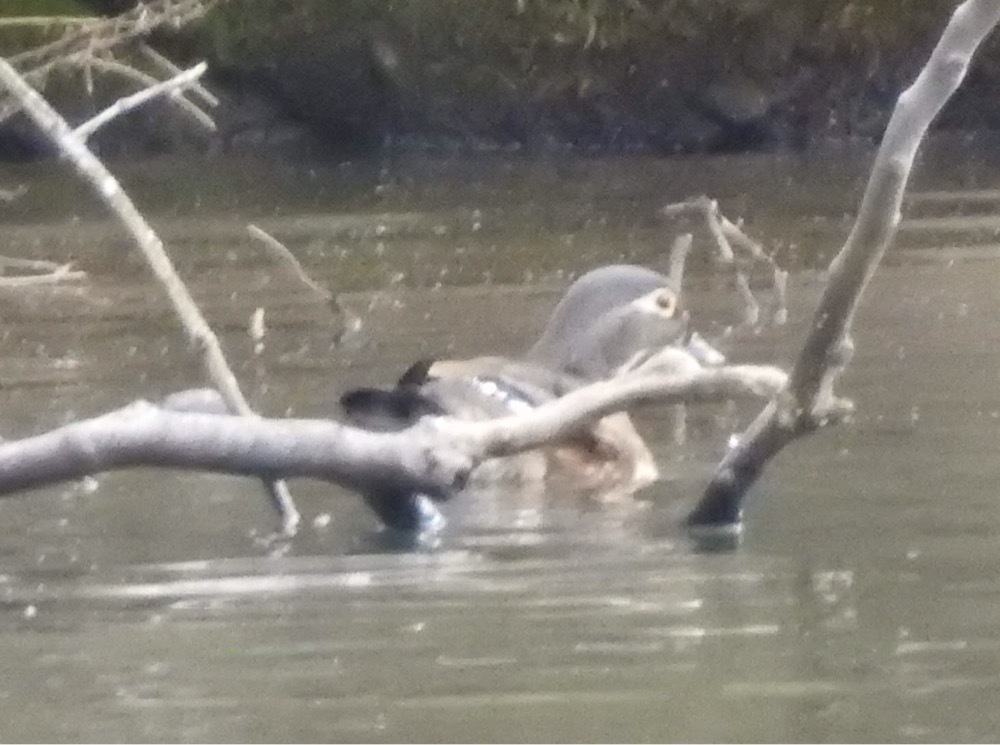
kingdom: Animalia
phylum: Chordata
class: Aves
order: Anseriformes
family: Anatidae
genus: Aix
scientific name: Aix sponsa
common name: Wood duck
